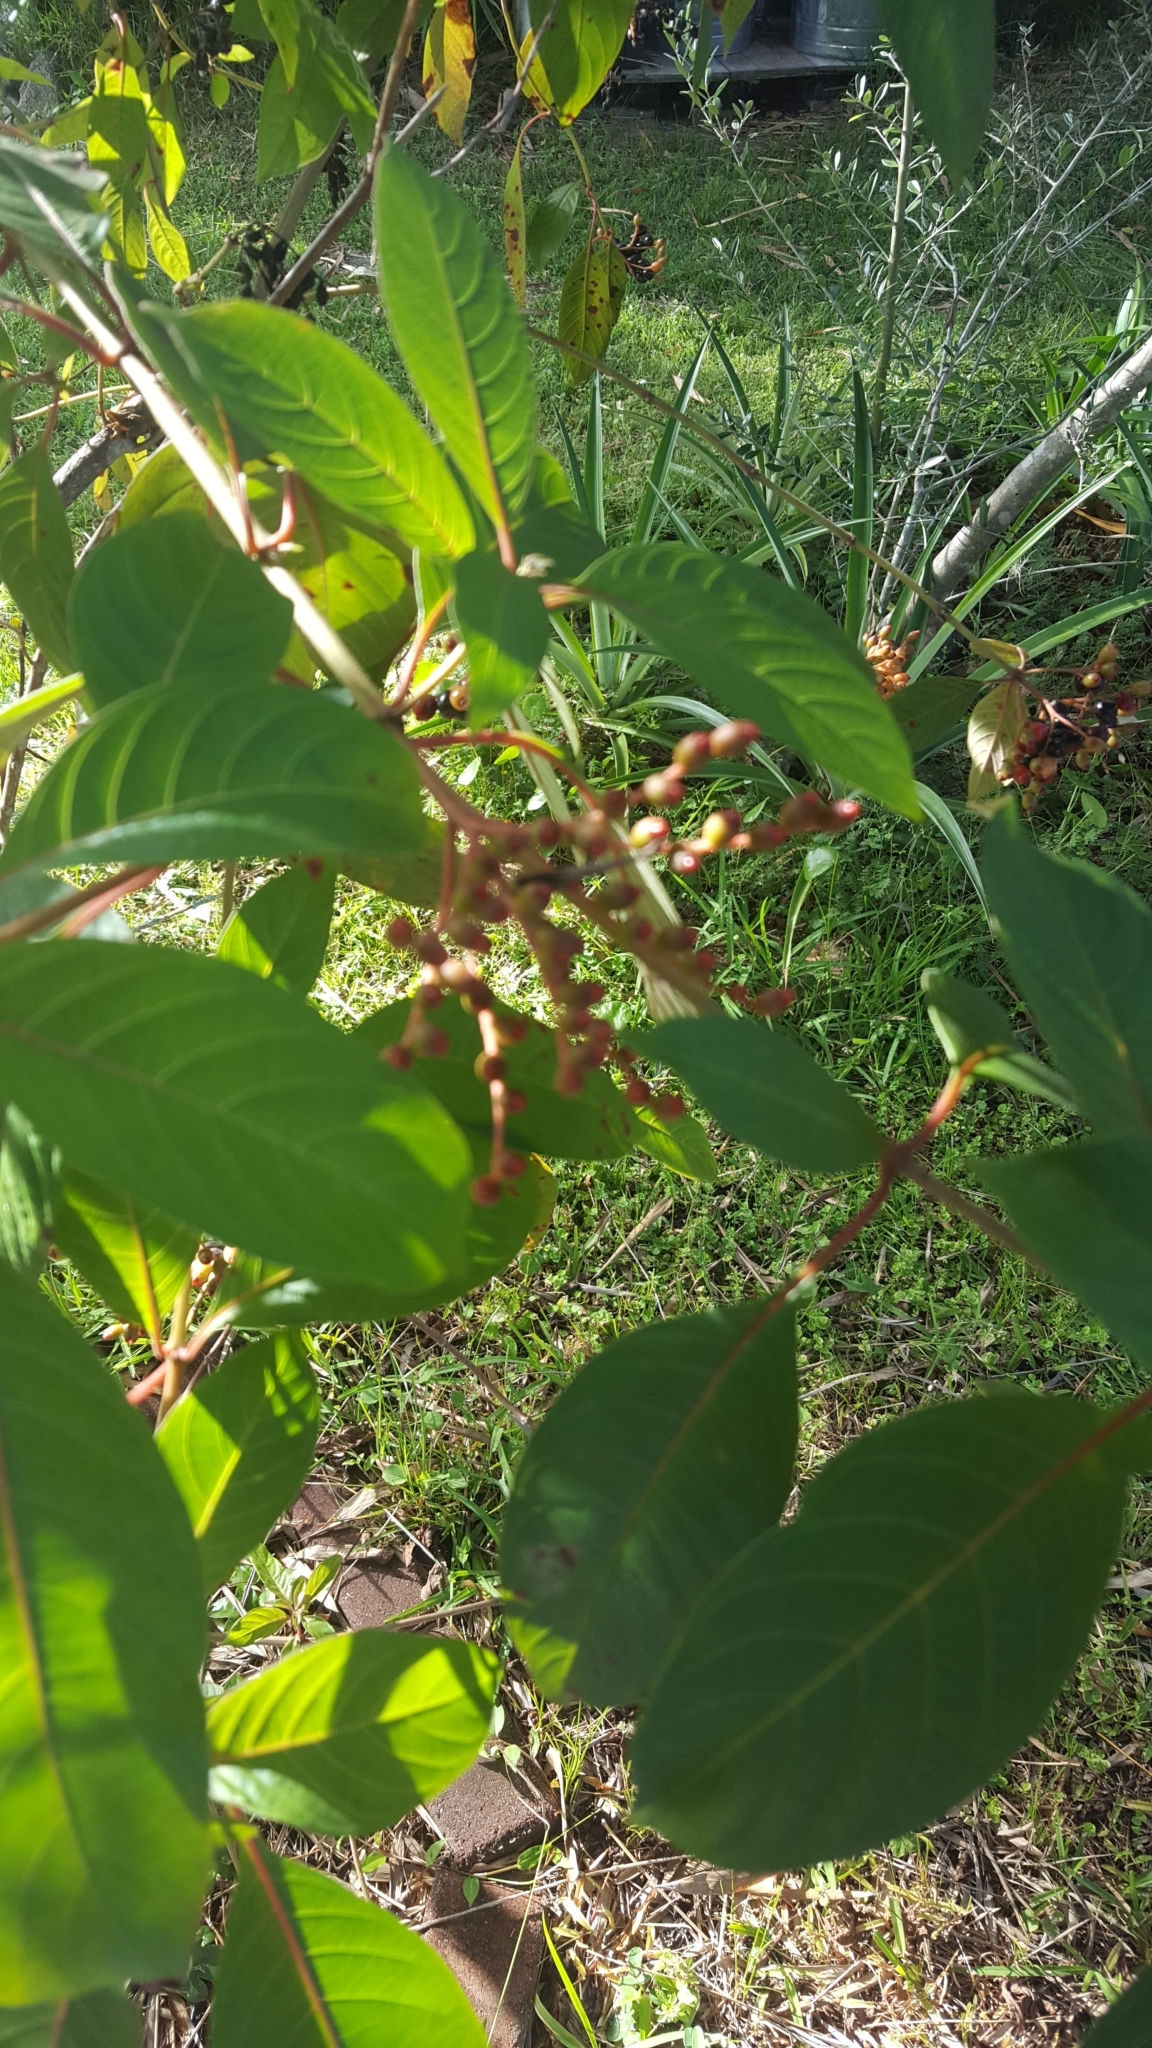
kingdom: Plantae
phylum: Tracheophyta
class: Magnoliopsida
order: Gentianales
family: Rubiaceae
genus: Hamelia
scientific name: Hamelia patens
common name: Redhead
